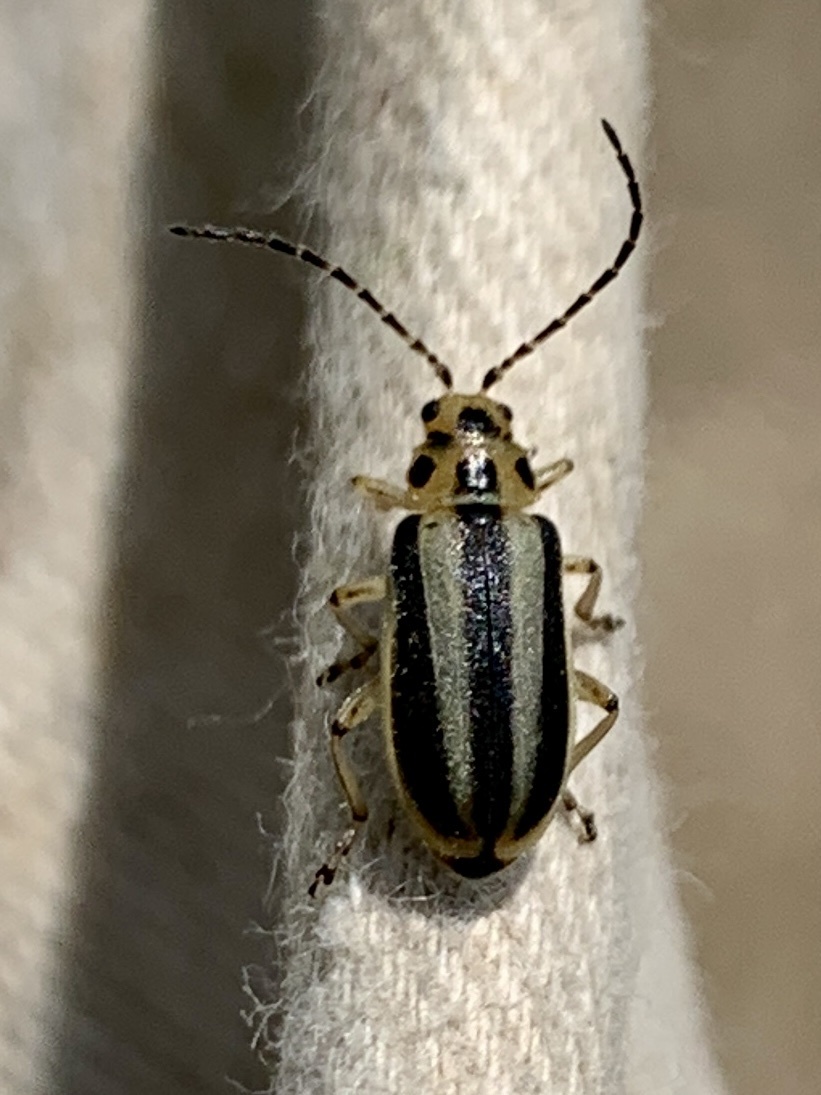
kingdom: Animalia
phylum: Arthropoda
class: Insecta
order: Coleoptera
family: Chrysomelidae
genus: Trirhabda
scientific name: Trirhabda canadensis
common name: Goldenrod leaf beetle
